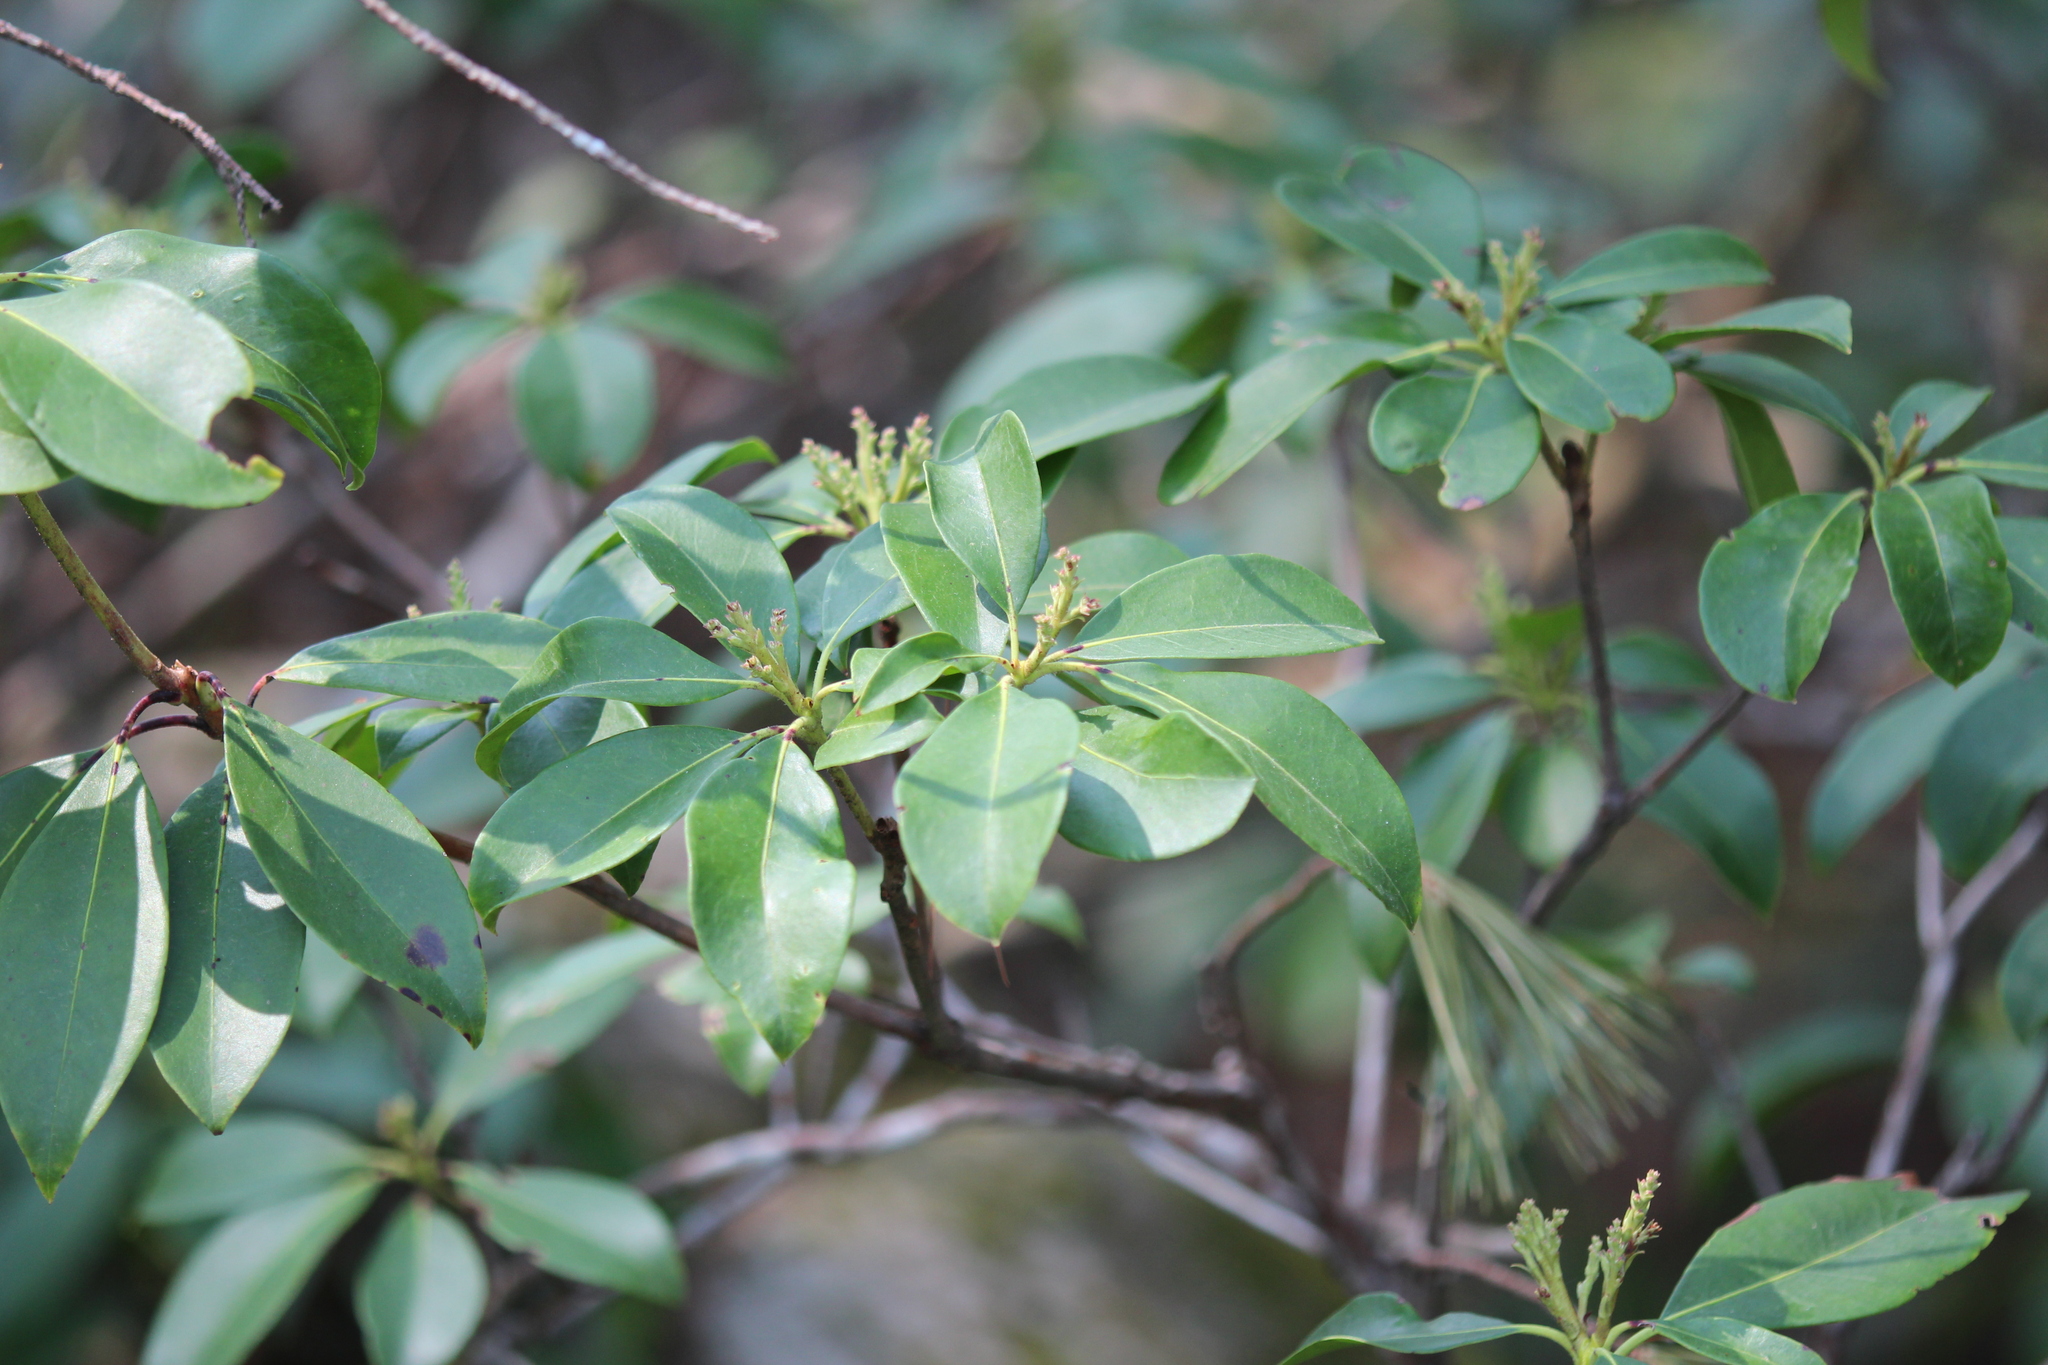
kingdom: Plantae
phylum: Tracheophyta
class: Magnoliopsida
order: Ericales
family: Ericaceae
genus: Kalmia
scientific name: Kalmia latifolia
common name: Mountain-laurel
